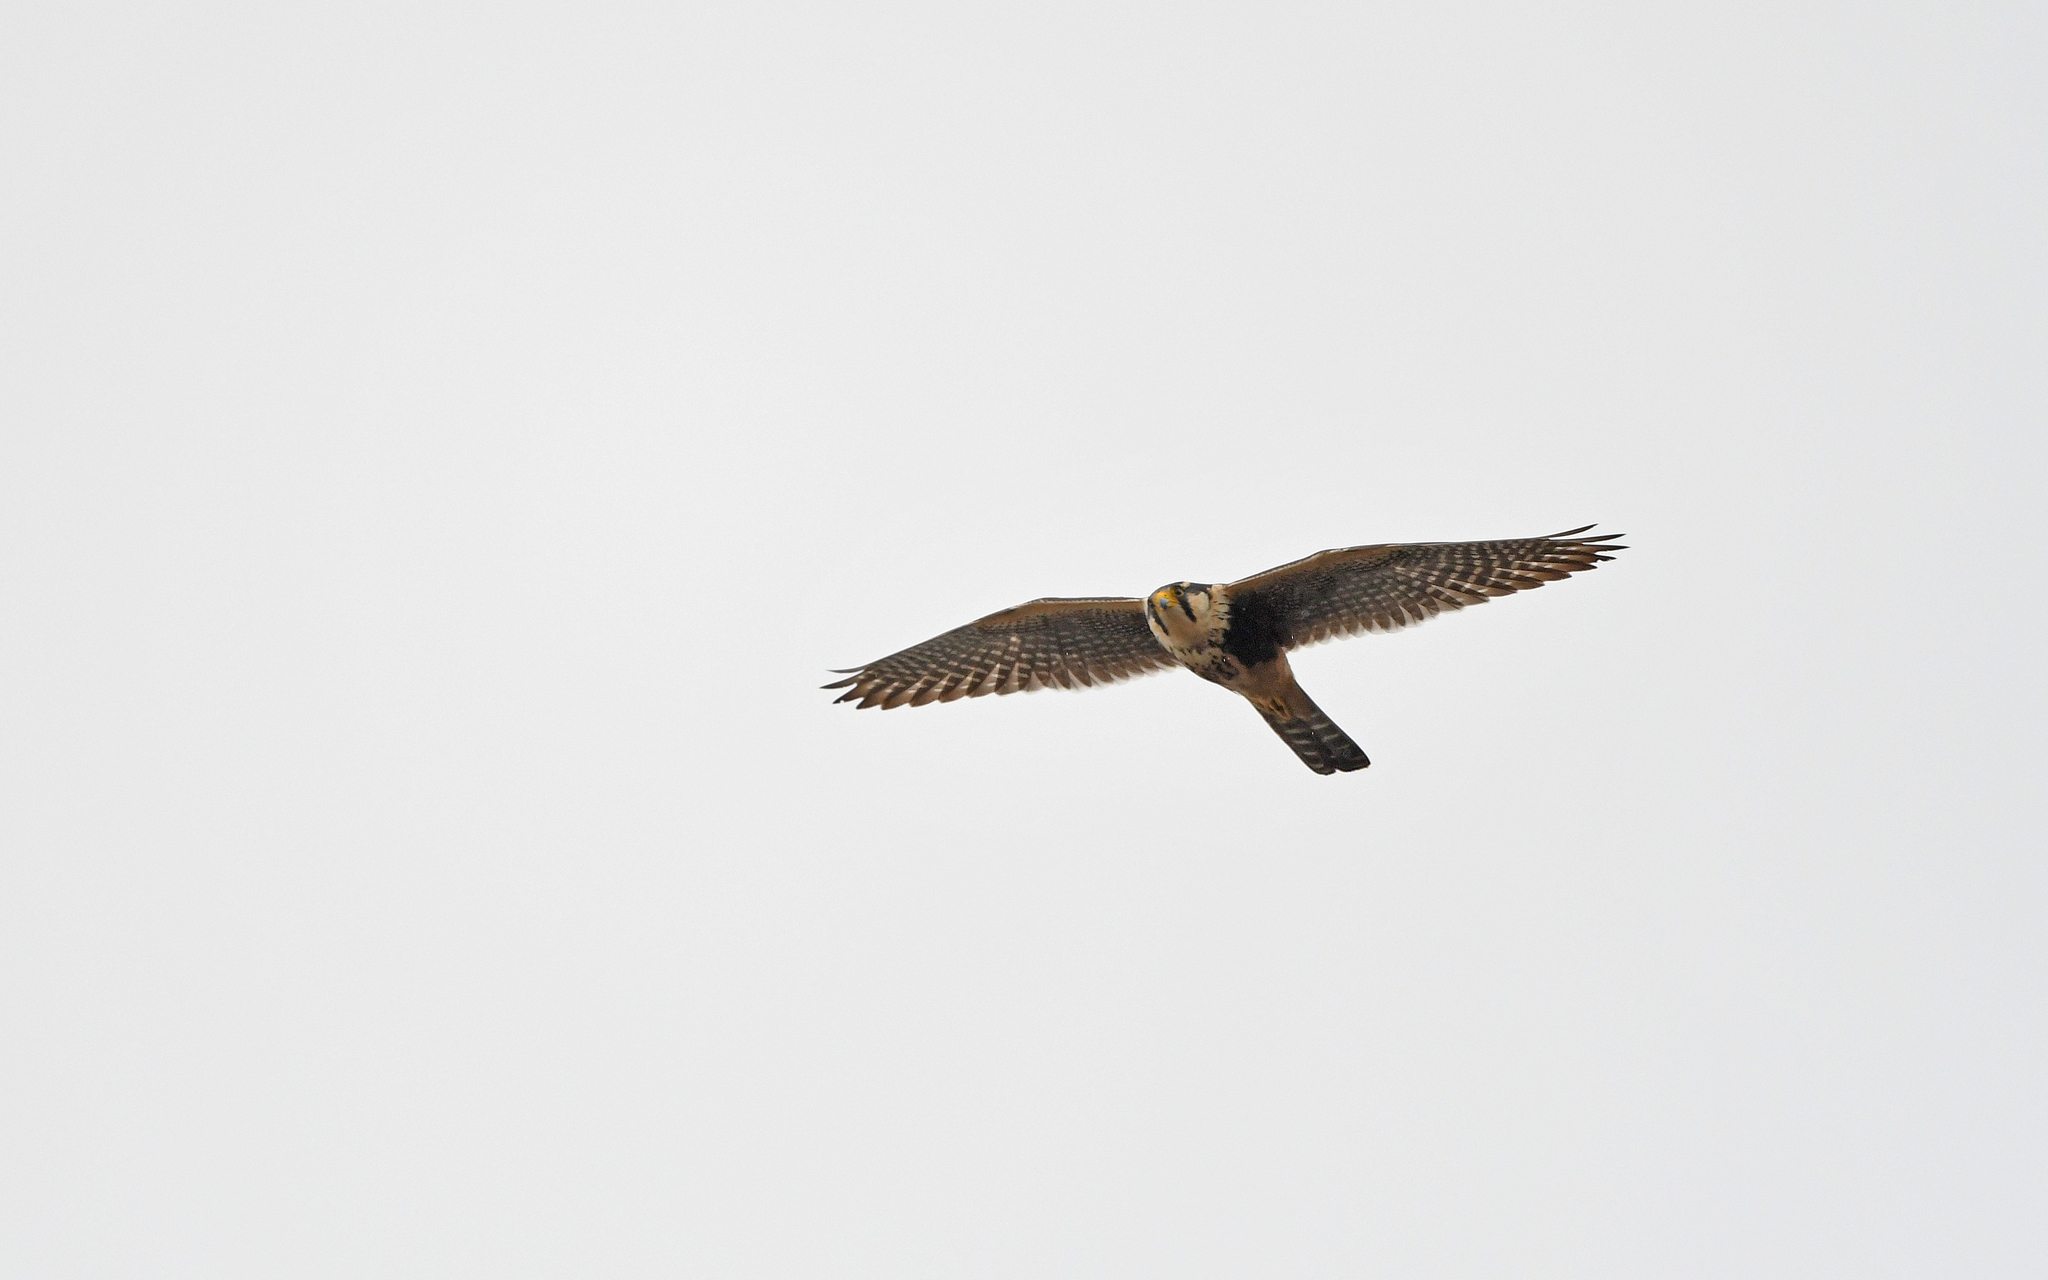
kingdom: Animalia
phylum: Chordata
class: Aves
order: Falconiformes
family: Falconidae
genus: Falco
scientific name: Falco femoralis
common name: Aplomado falcon
